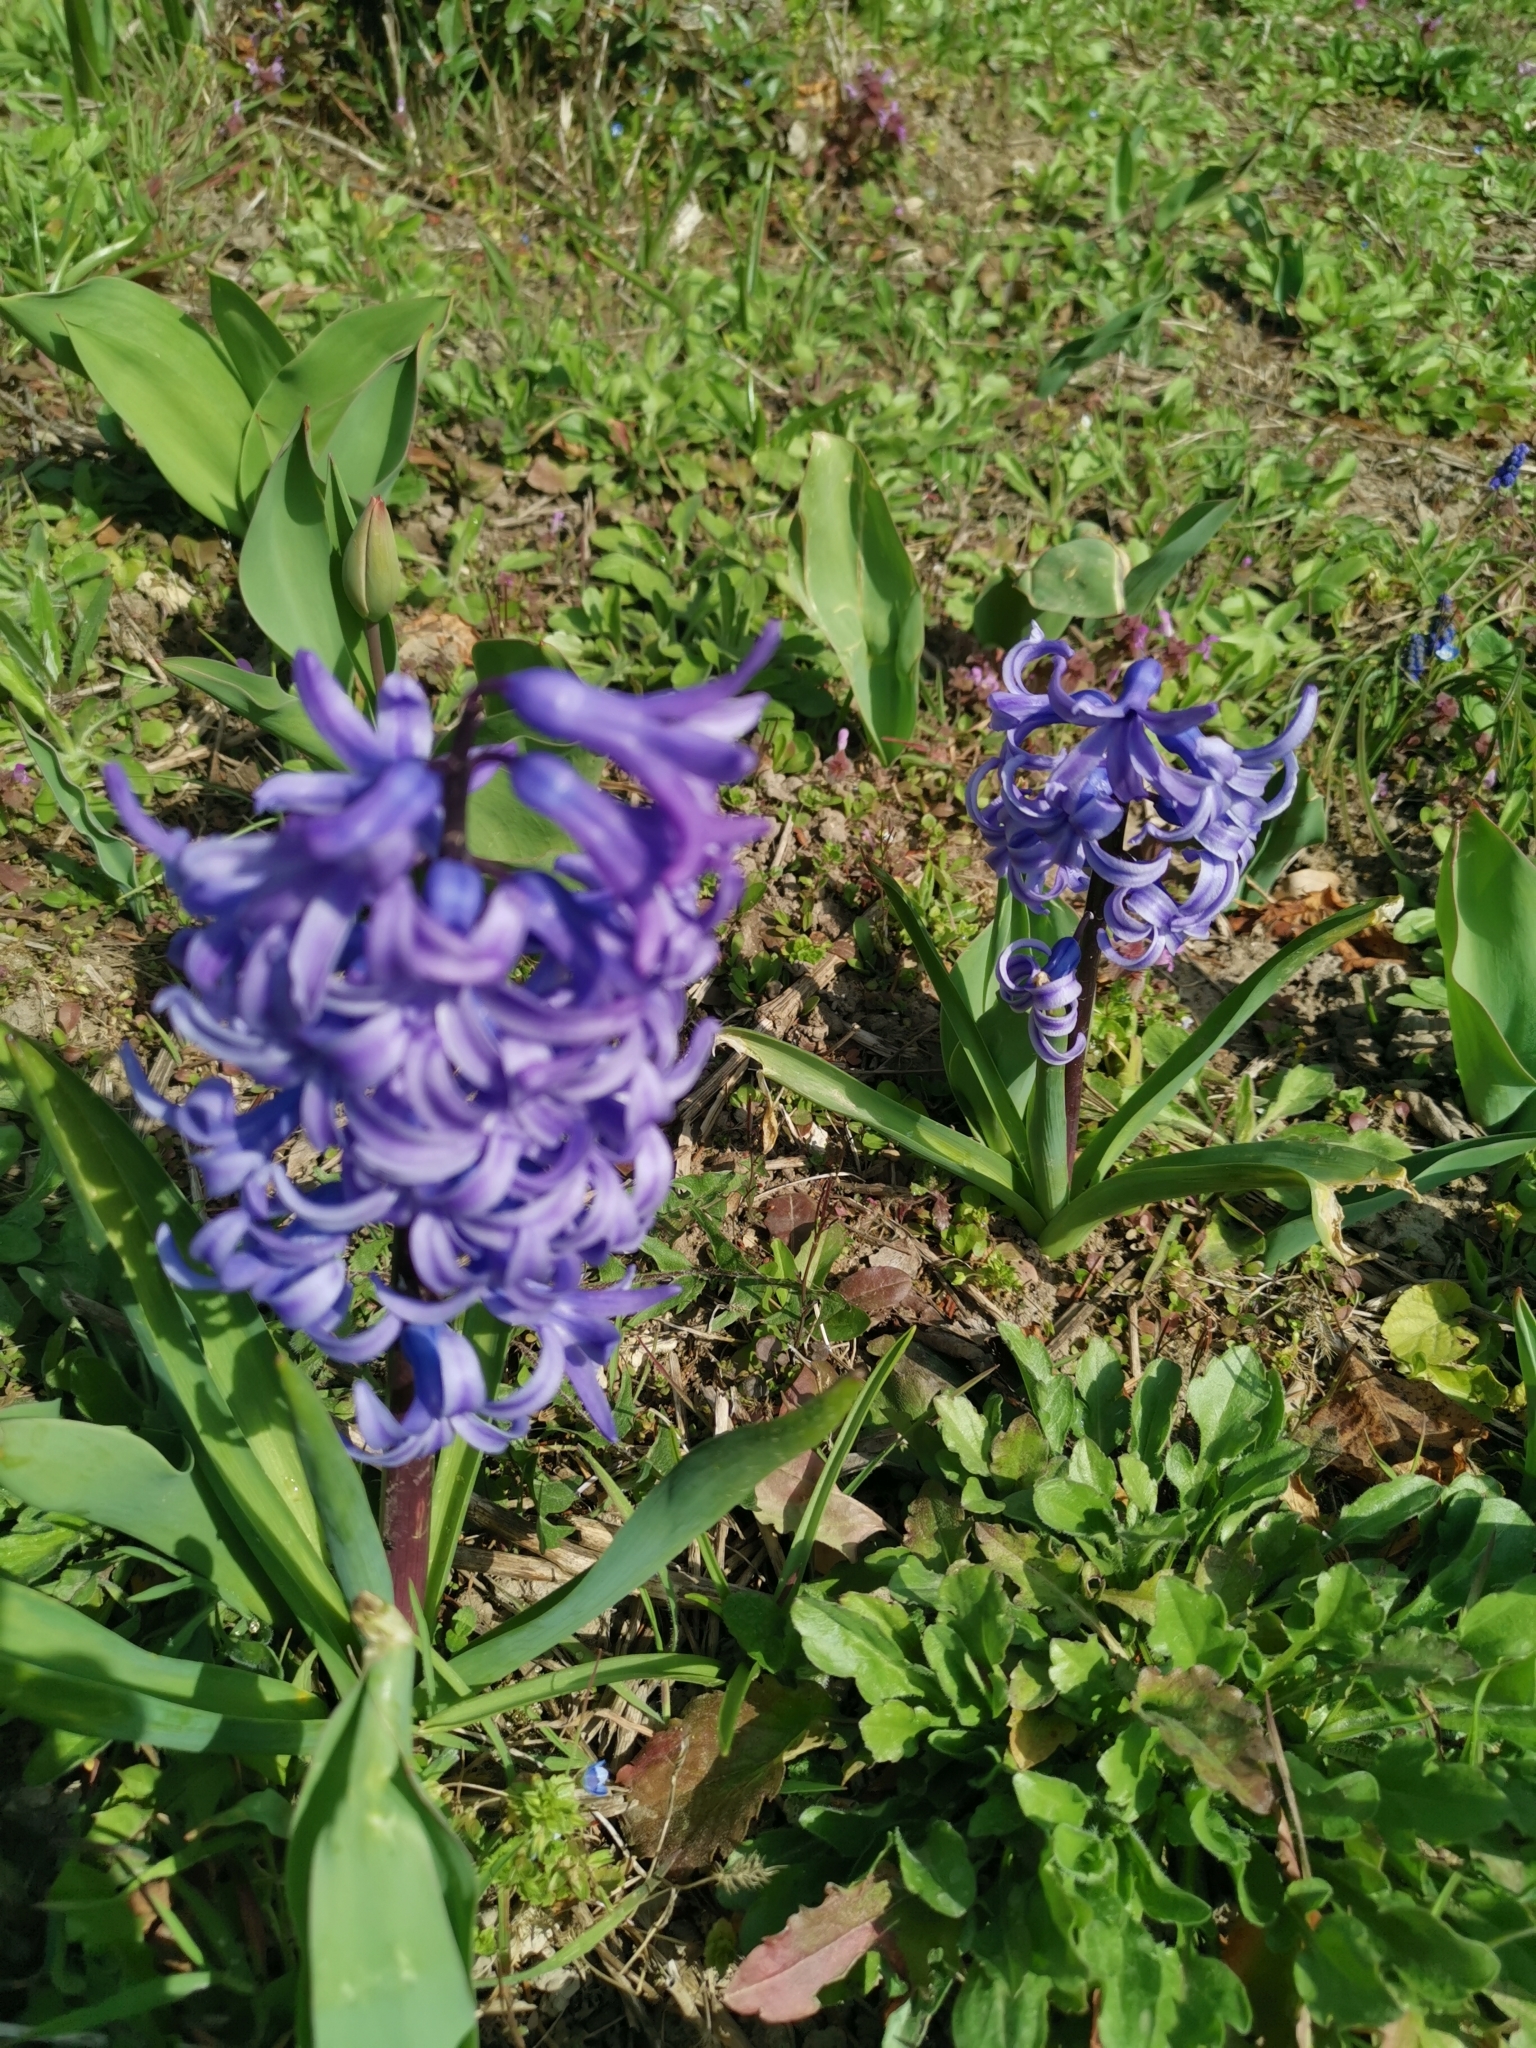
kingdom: Plantae
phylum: Tracheophyta
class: Liliopsida
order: Asparagales
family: Asparagaceae
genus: Hyacinthus
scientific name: Hyacinthus orientalis
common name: Hyacinth
